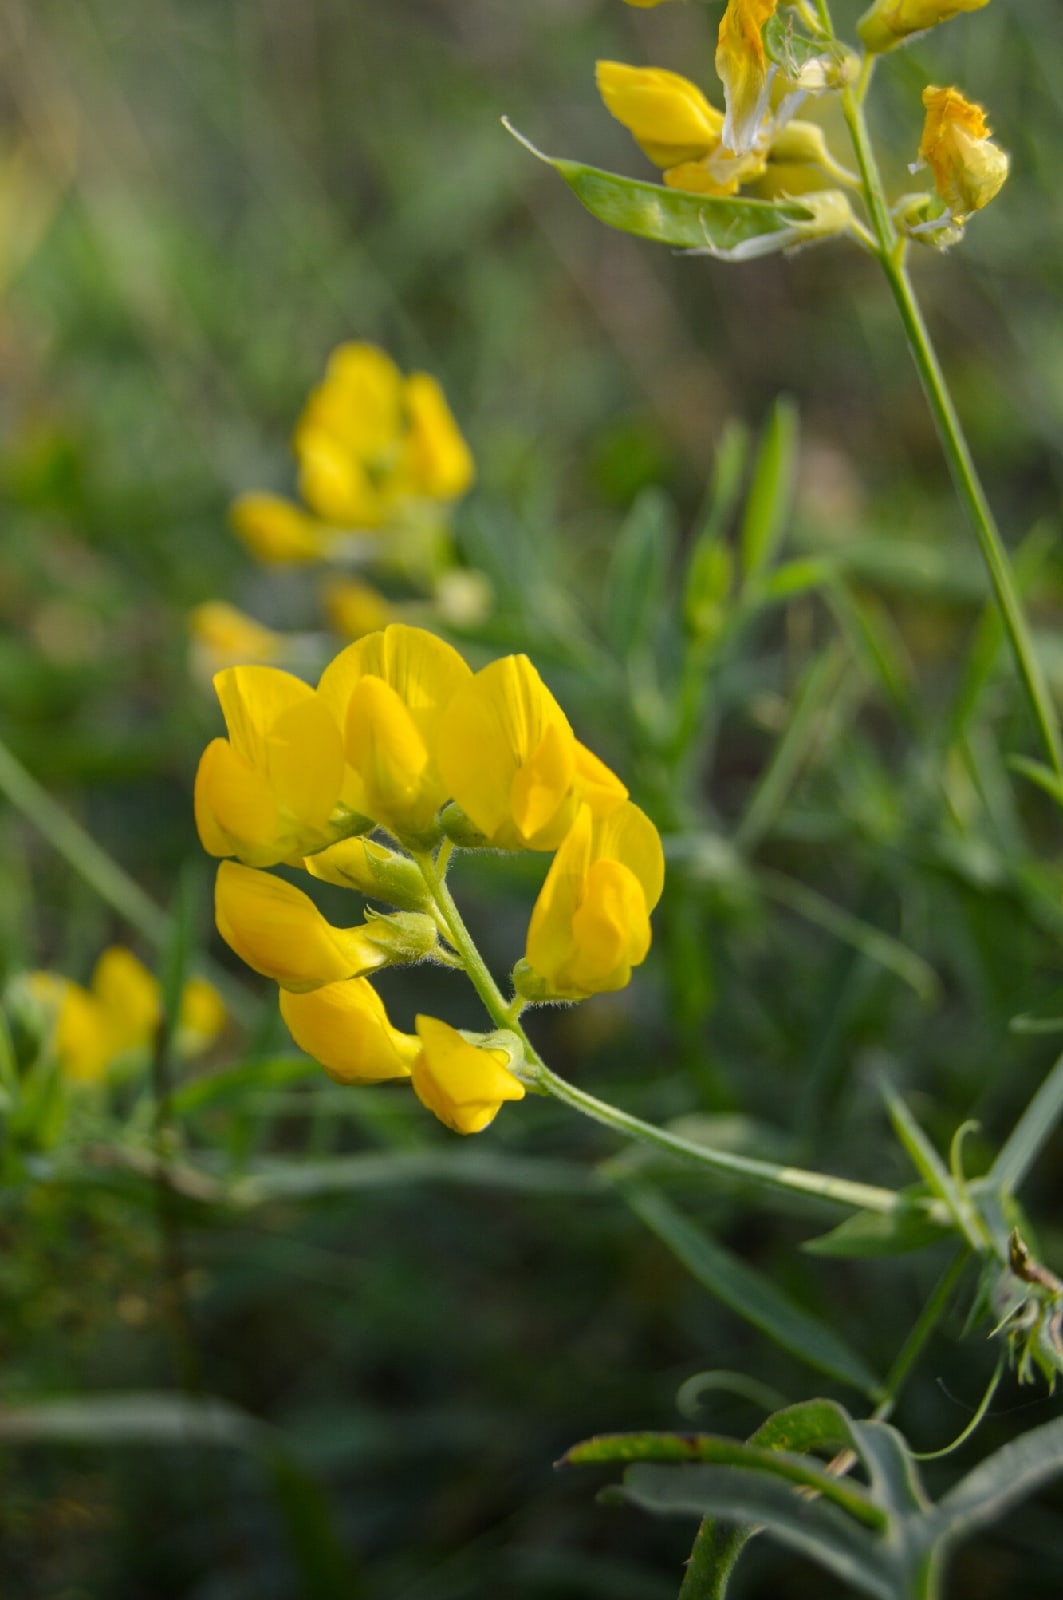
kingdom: Plantae
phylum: Tracheophyta
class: Magnoliopsida
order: Fabales
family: Fabaceae
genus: Lathyrus
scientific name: Lathyrus pratensis
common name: Meadow vetchling
